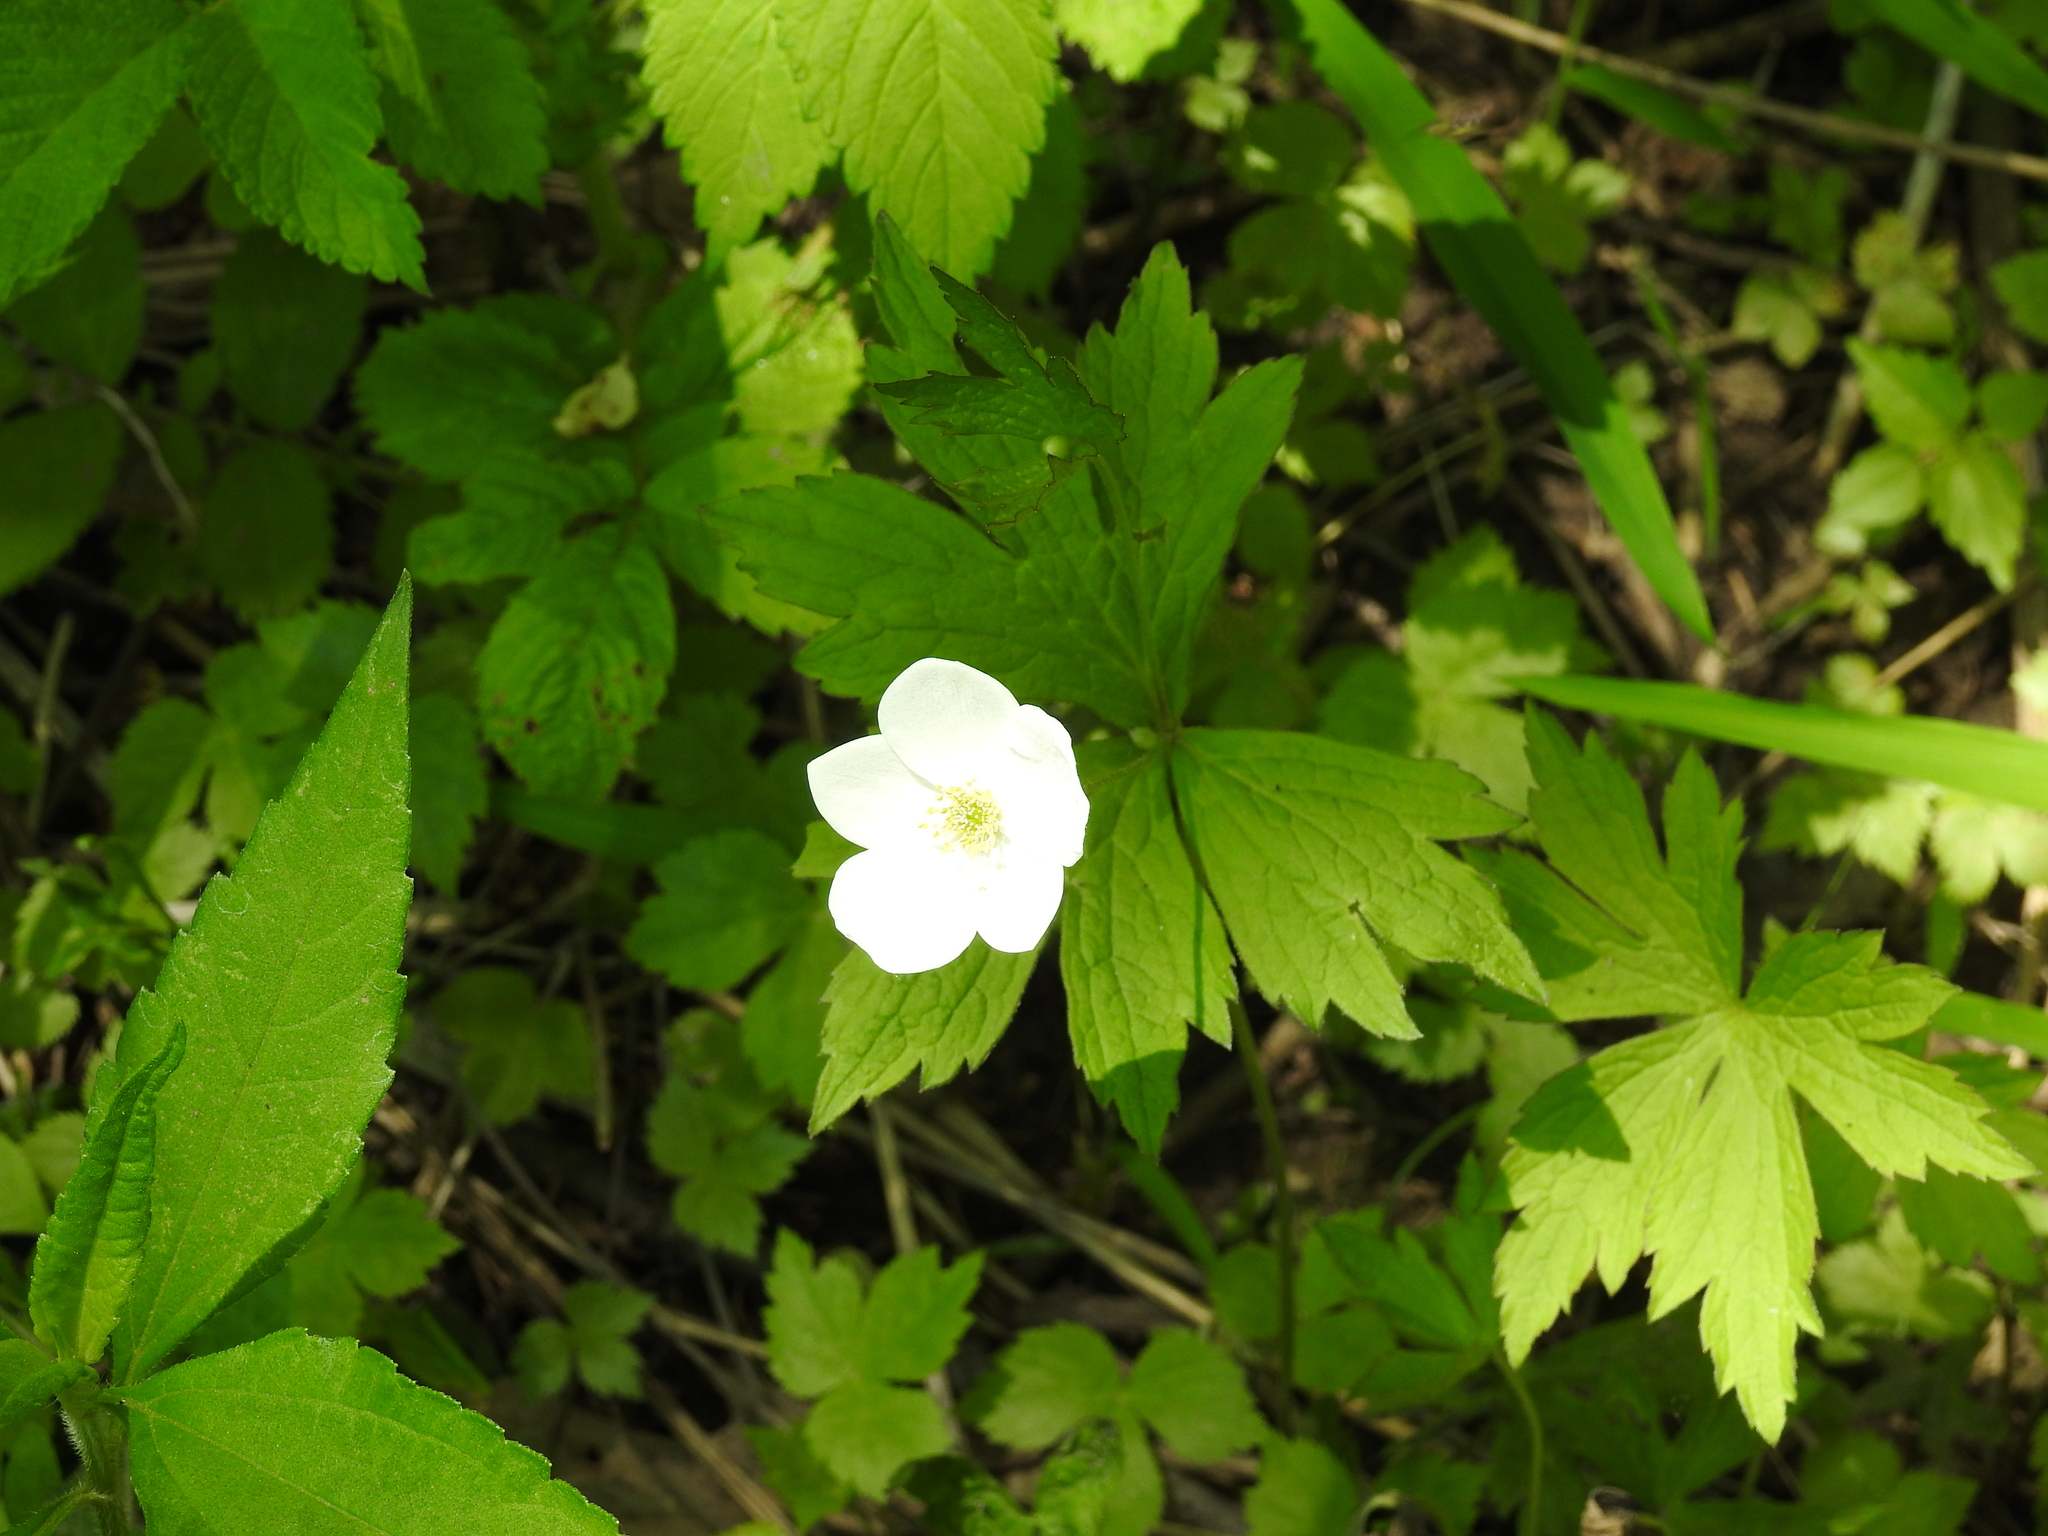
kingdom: Plantae
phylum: Tracheophyta
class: Magnoliopsida
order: Ranunculales
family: Ranunculaceae
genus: Anemonastrum
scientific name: Anemonastrum canadense
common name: Canada anemone
